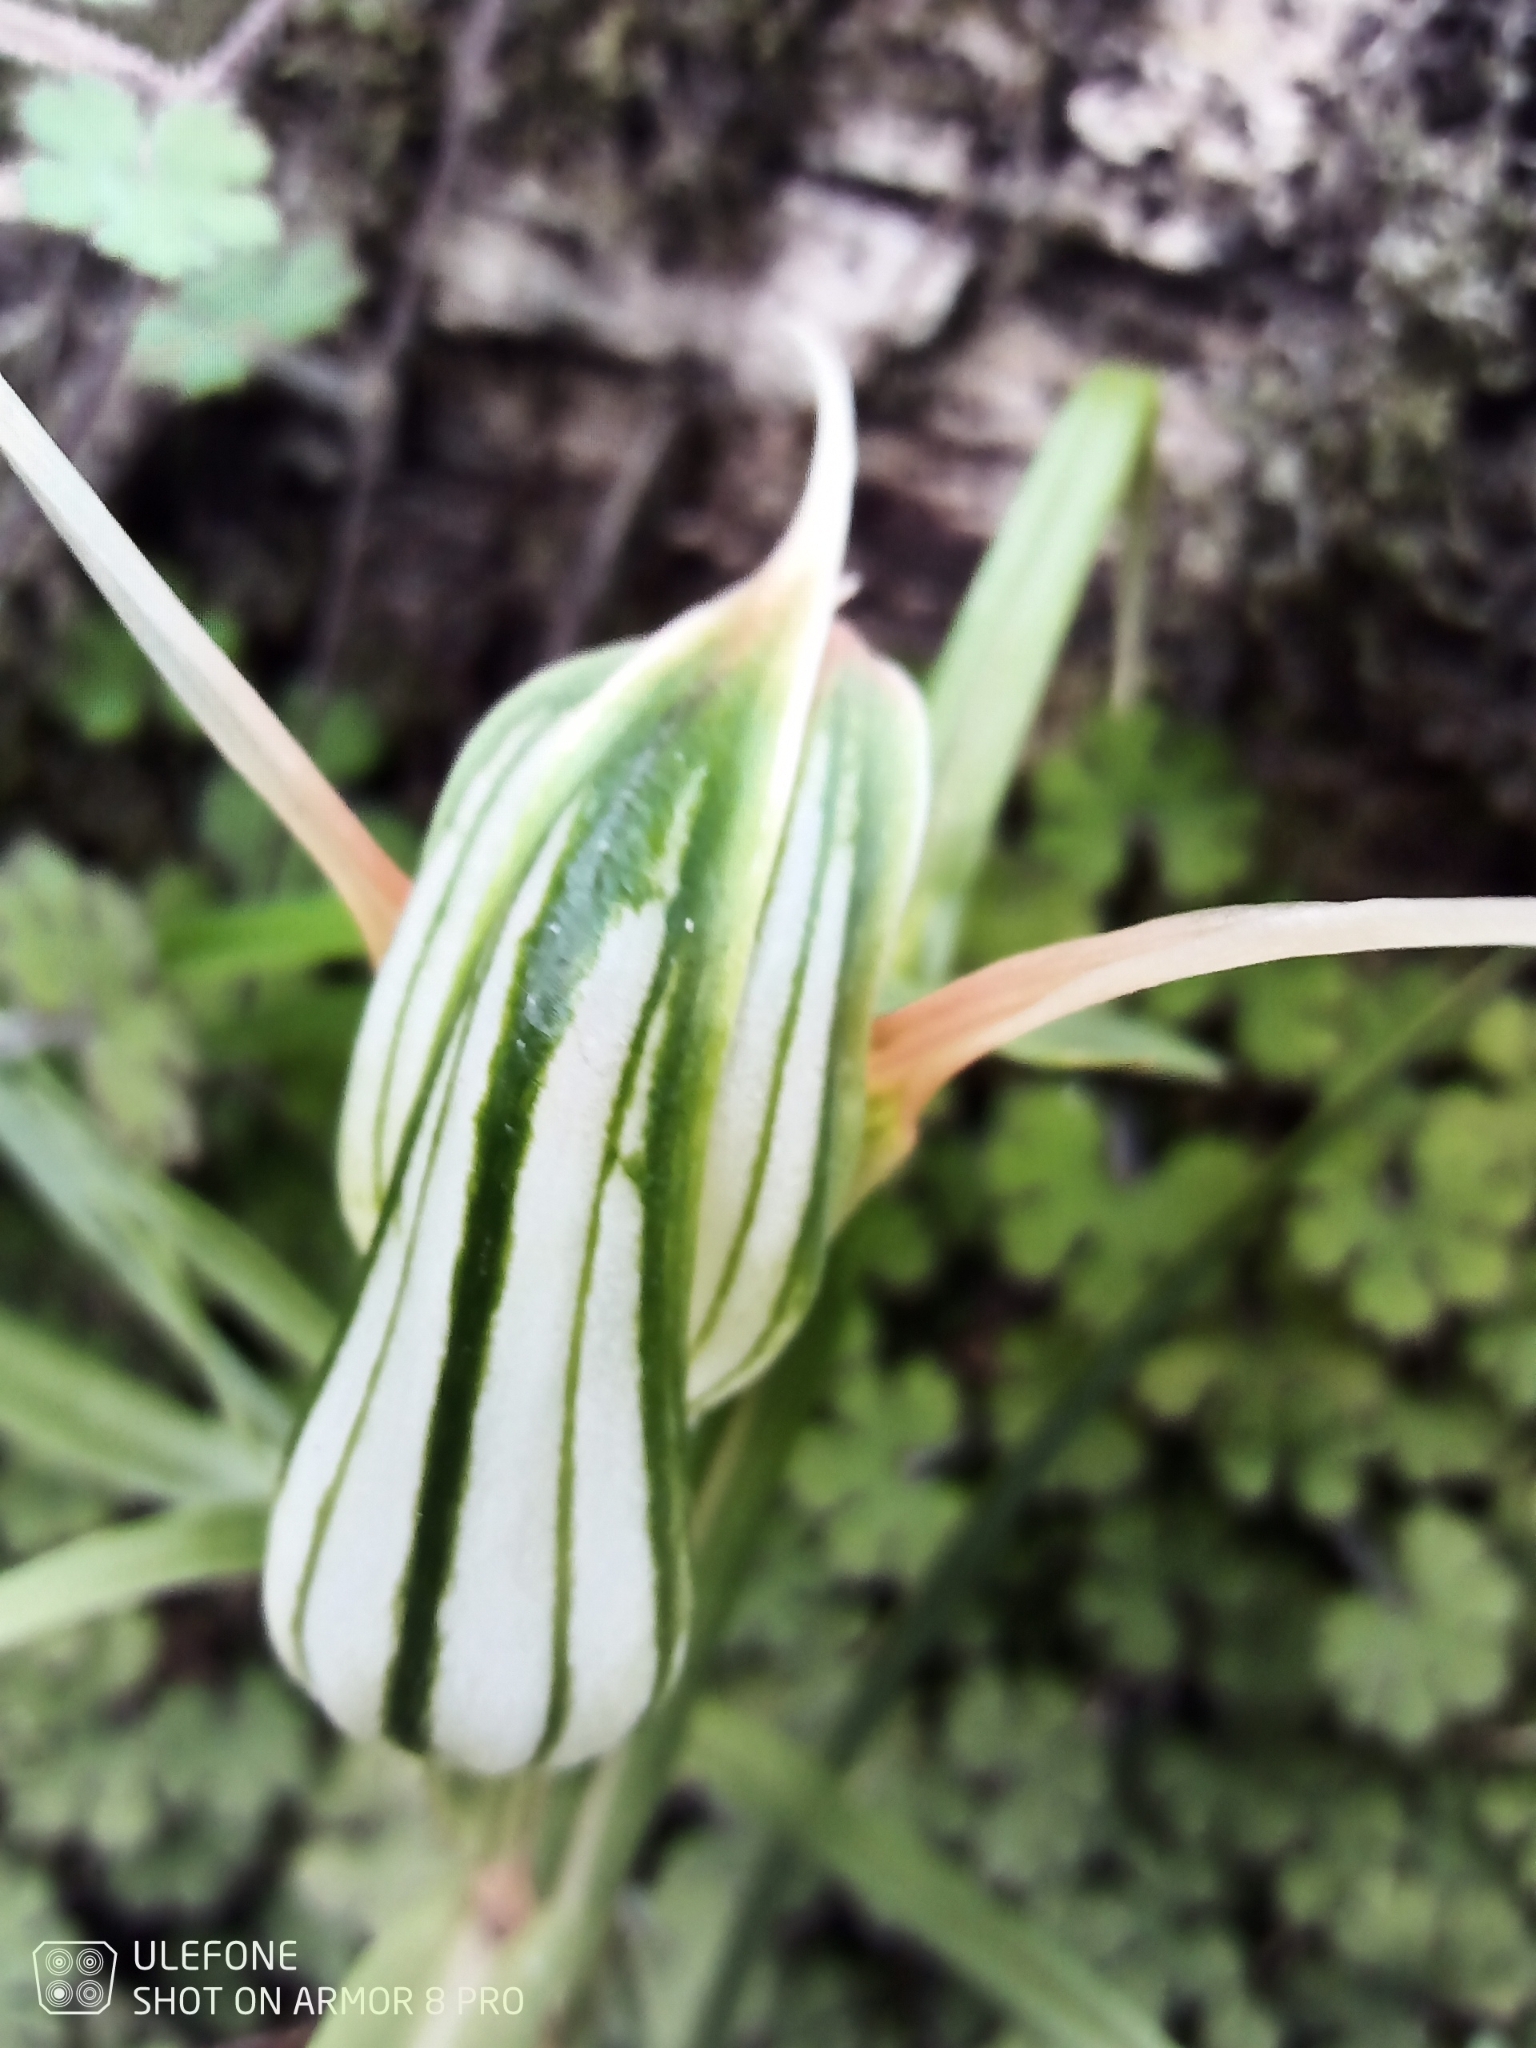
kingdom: Plantae
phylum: Tracheophyta
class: Liliopsida
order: Asparagales
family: Orchidaceae
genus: Pterostylis
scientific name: Pterostylis banksii
